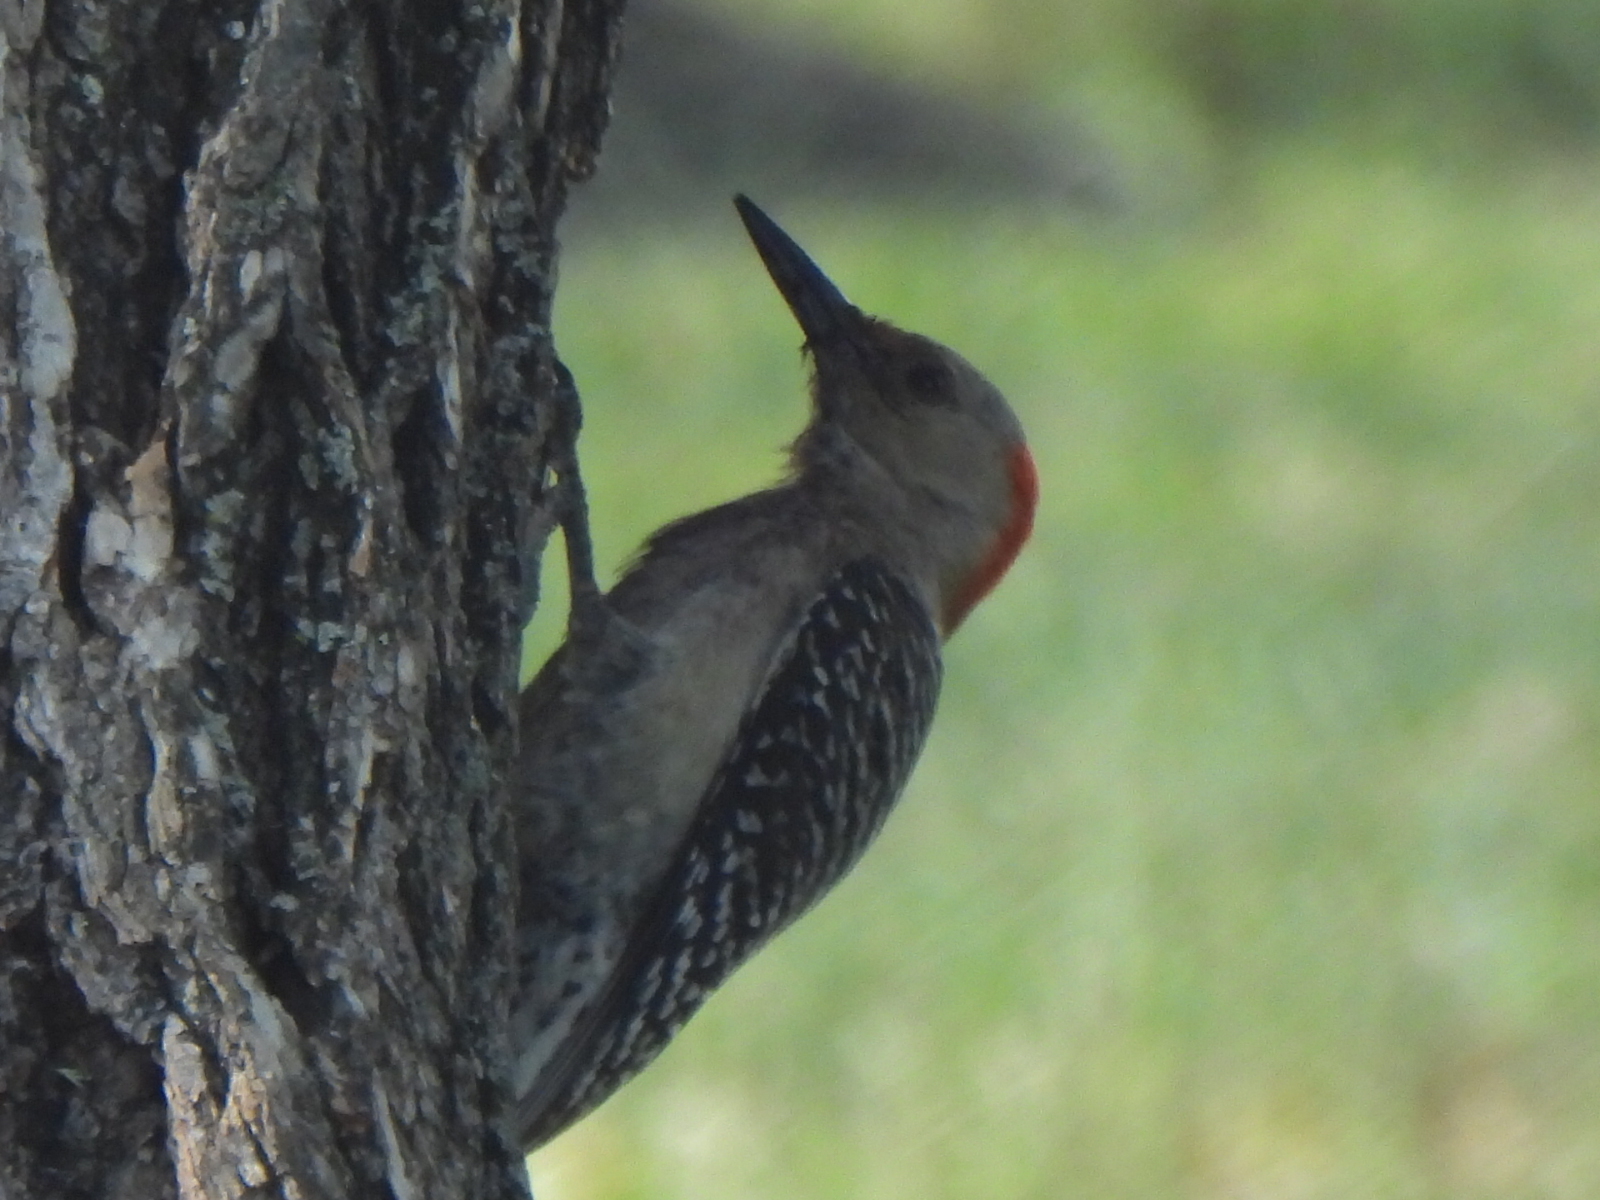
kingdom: Animalia
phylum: Chordata
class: Aves
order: Piciformes
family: Picidae
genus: Melanerpes
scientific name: Melanerpes carolinus
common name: Red-bellied woodpecker
